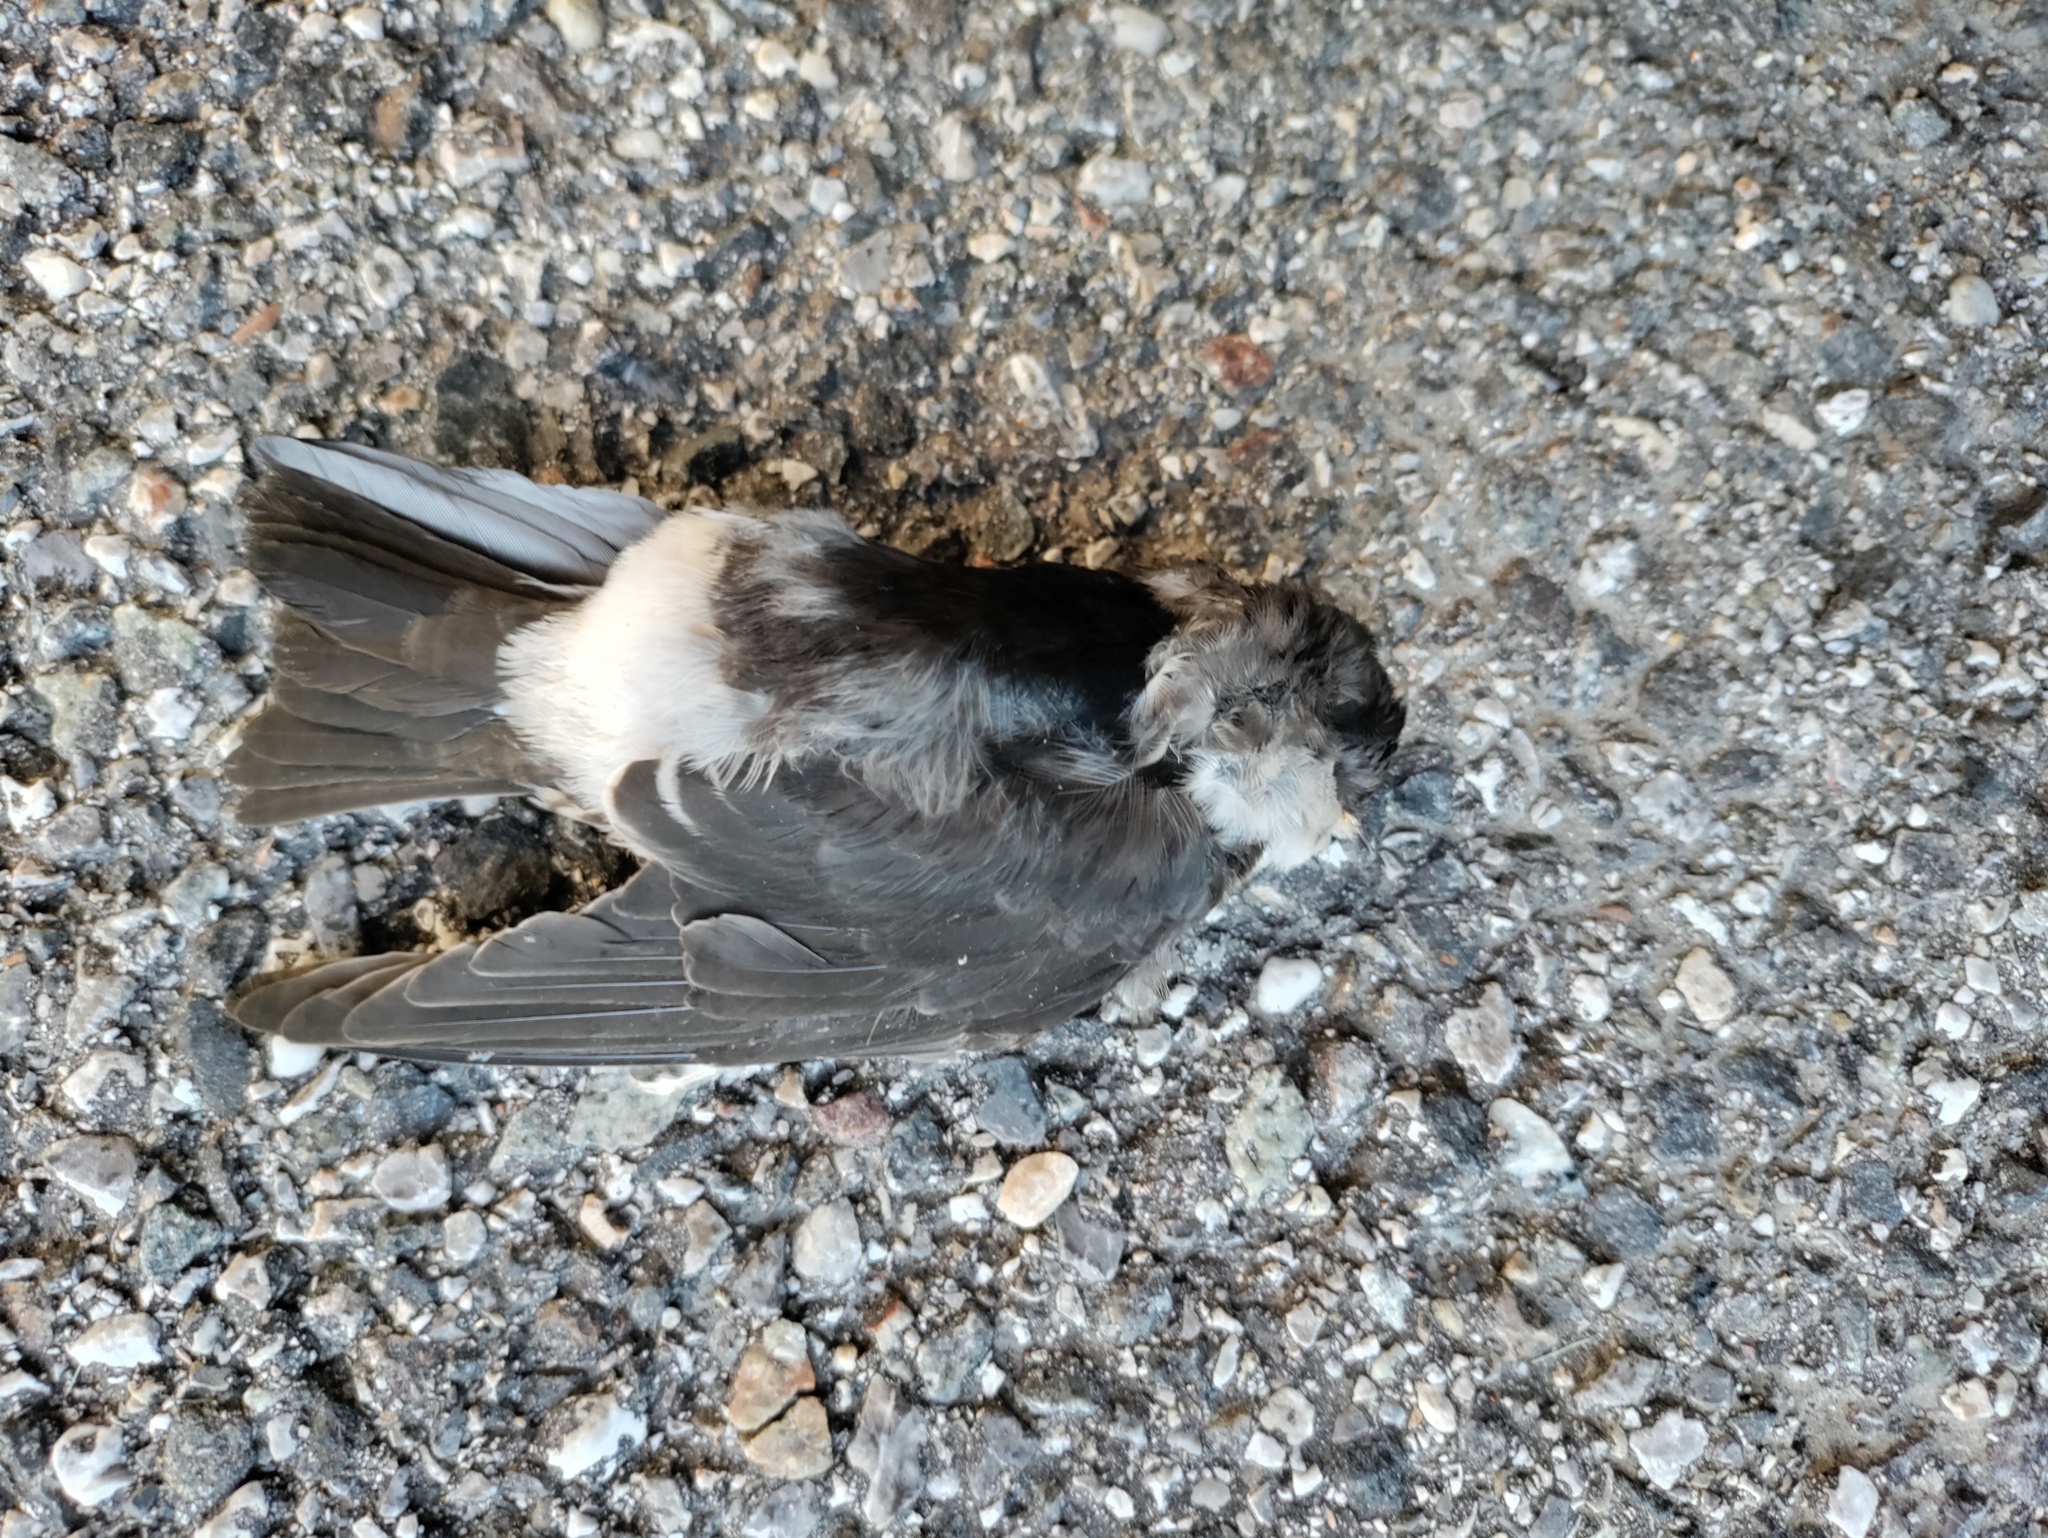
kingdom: Animalia
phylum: Chordata
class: Aves
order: Passeriformes
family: Hirundinidae
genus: Delichon
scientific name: Delichon urbicum
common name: Common house martin
